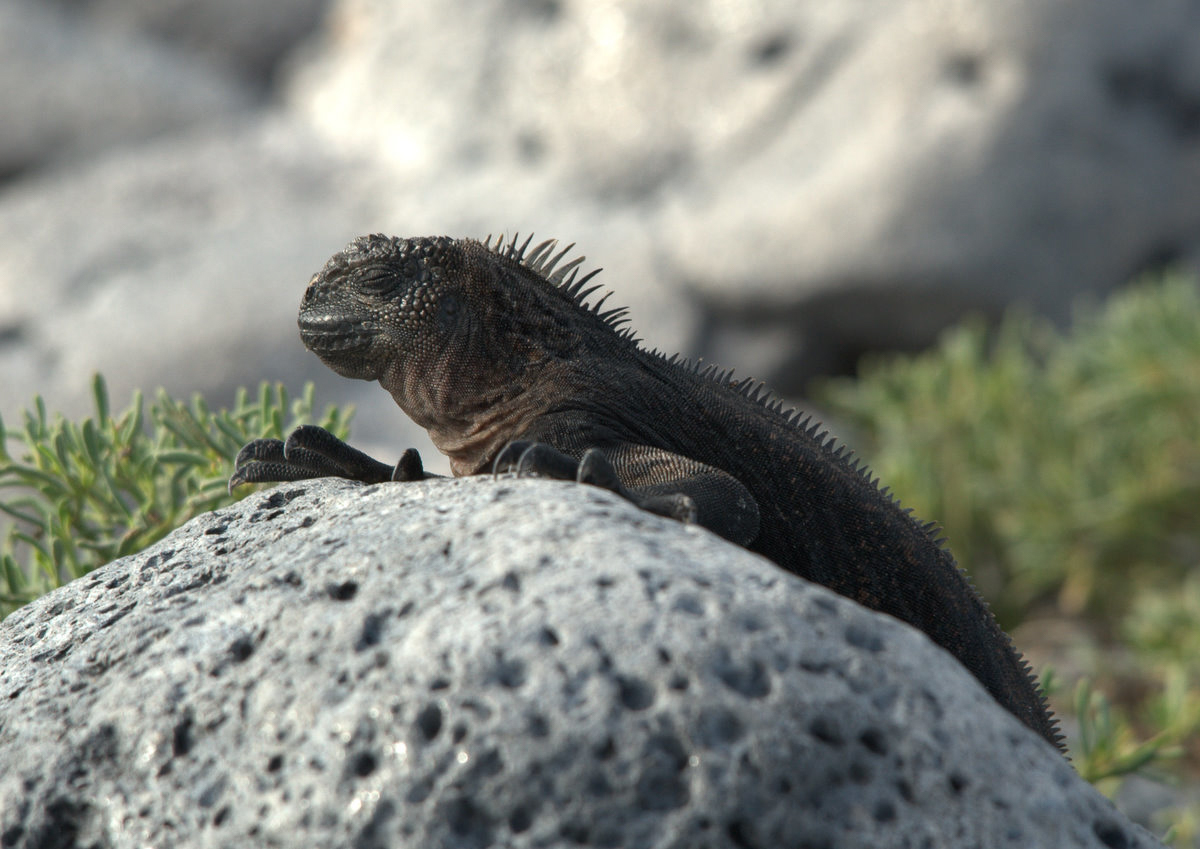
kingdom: Animalia
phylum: Chordata
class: Squamata
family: Iguanidae
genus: Amblyrhynchus
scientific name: Amblyrhynchus cristatus
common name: Marine iguana
